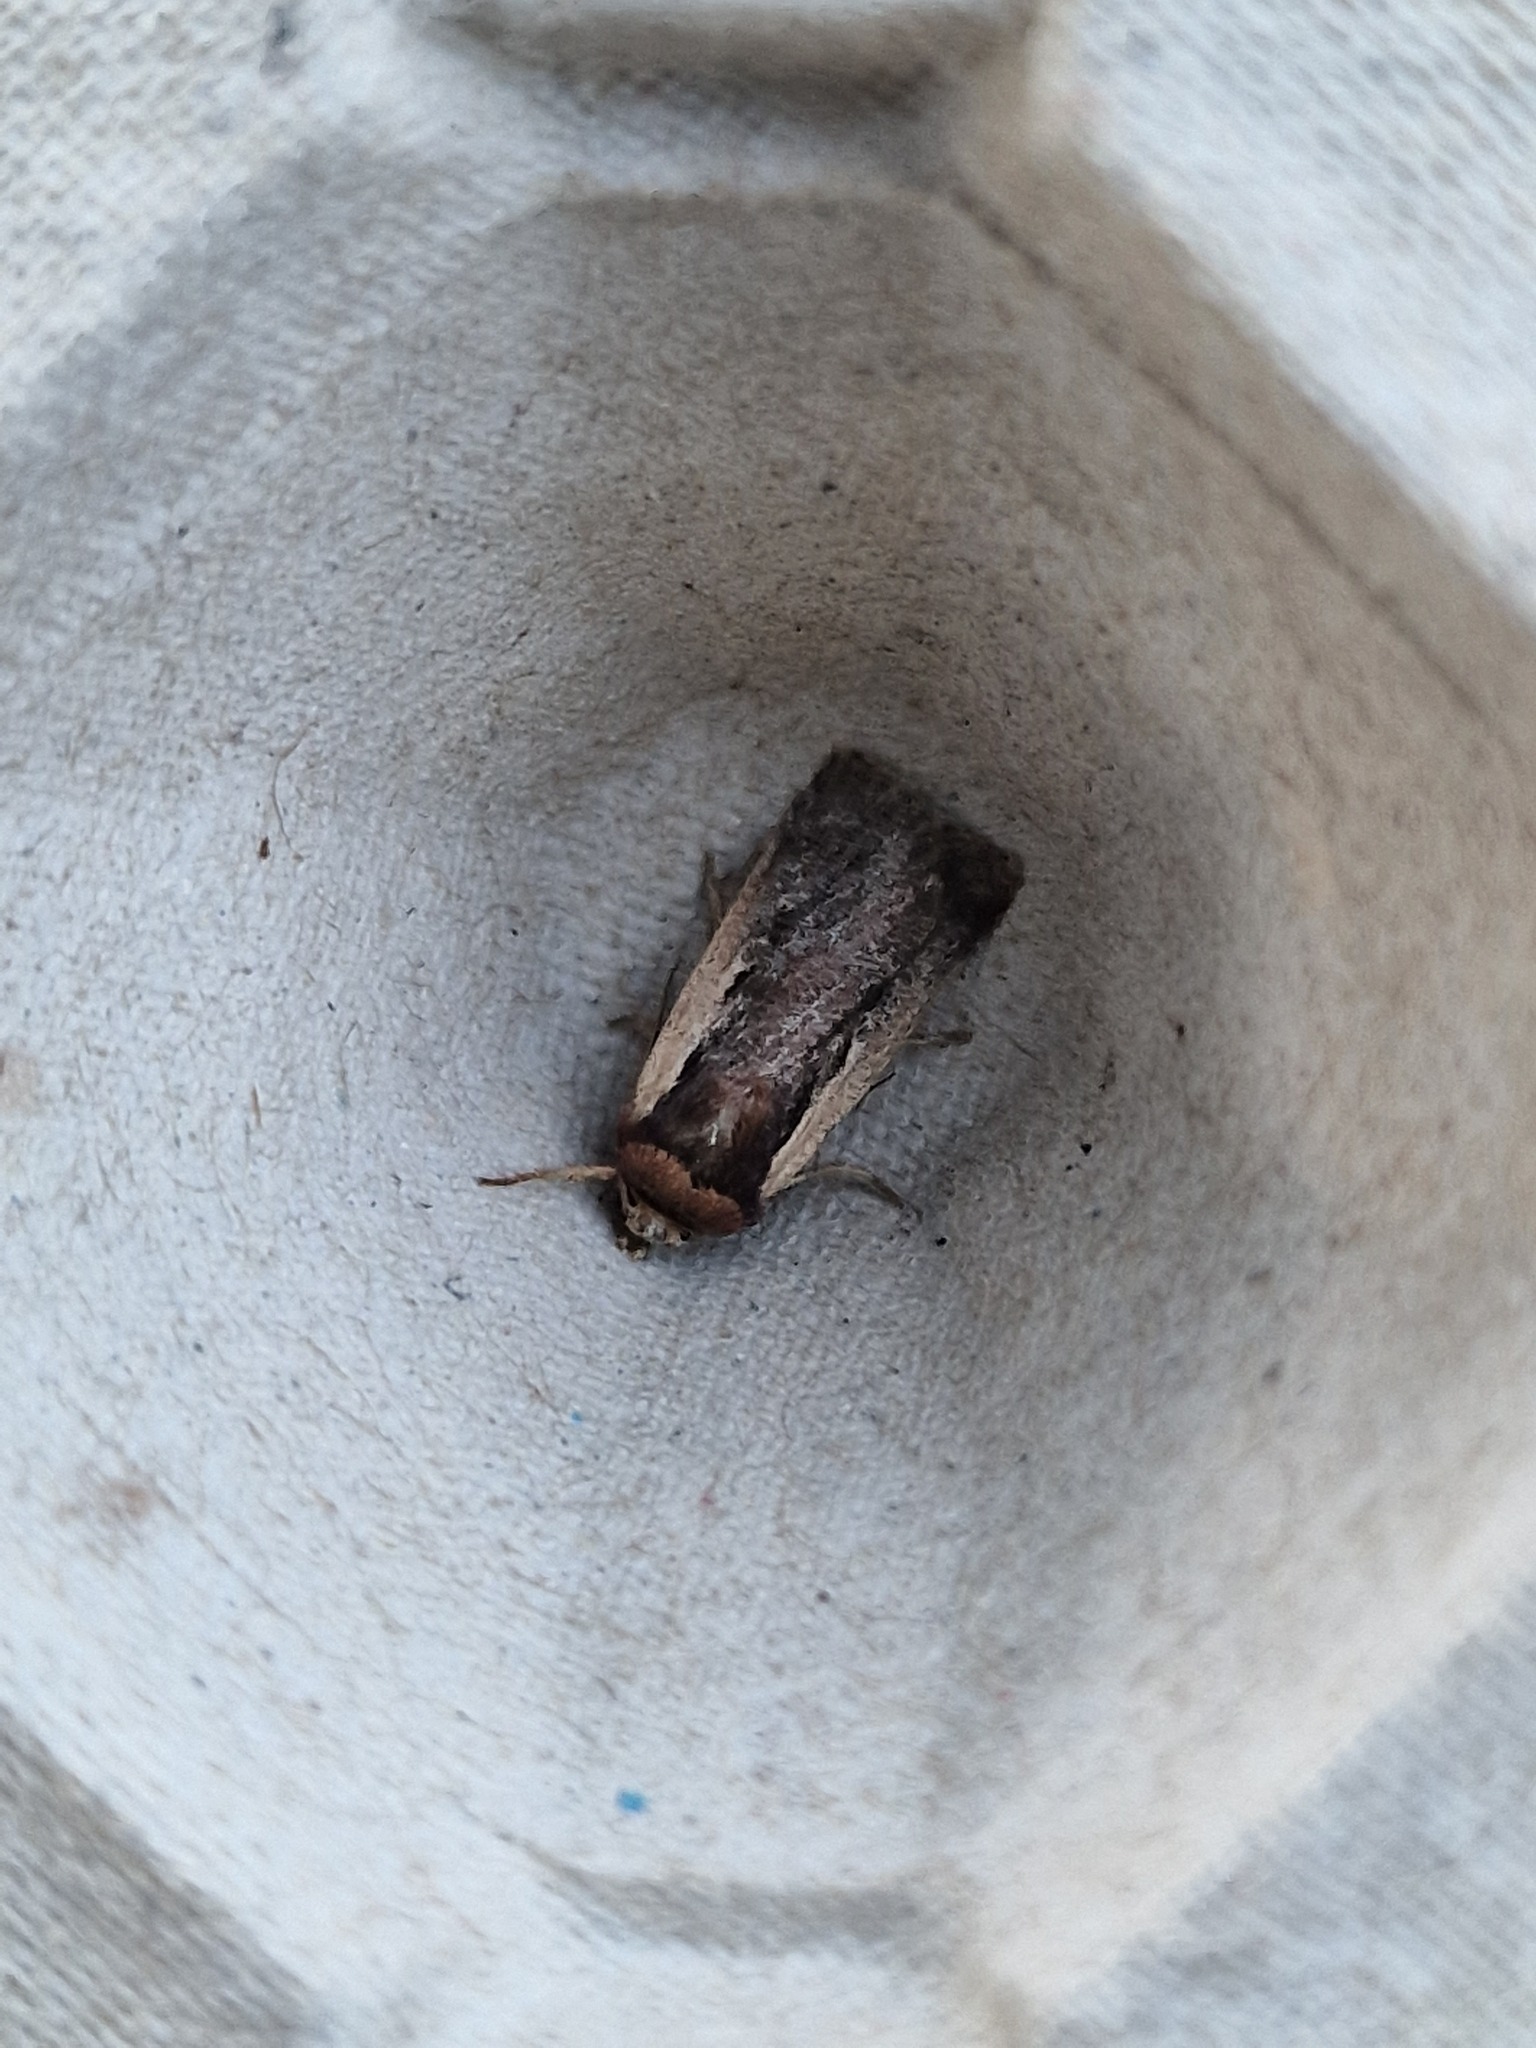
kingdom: Animalia
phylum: Arthropoda
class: Insecta
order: Lepidoptera
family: Noctuidae
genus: Ochropleura
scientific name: Ochropleura plecta
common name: Flame shoulder
